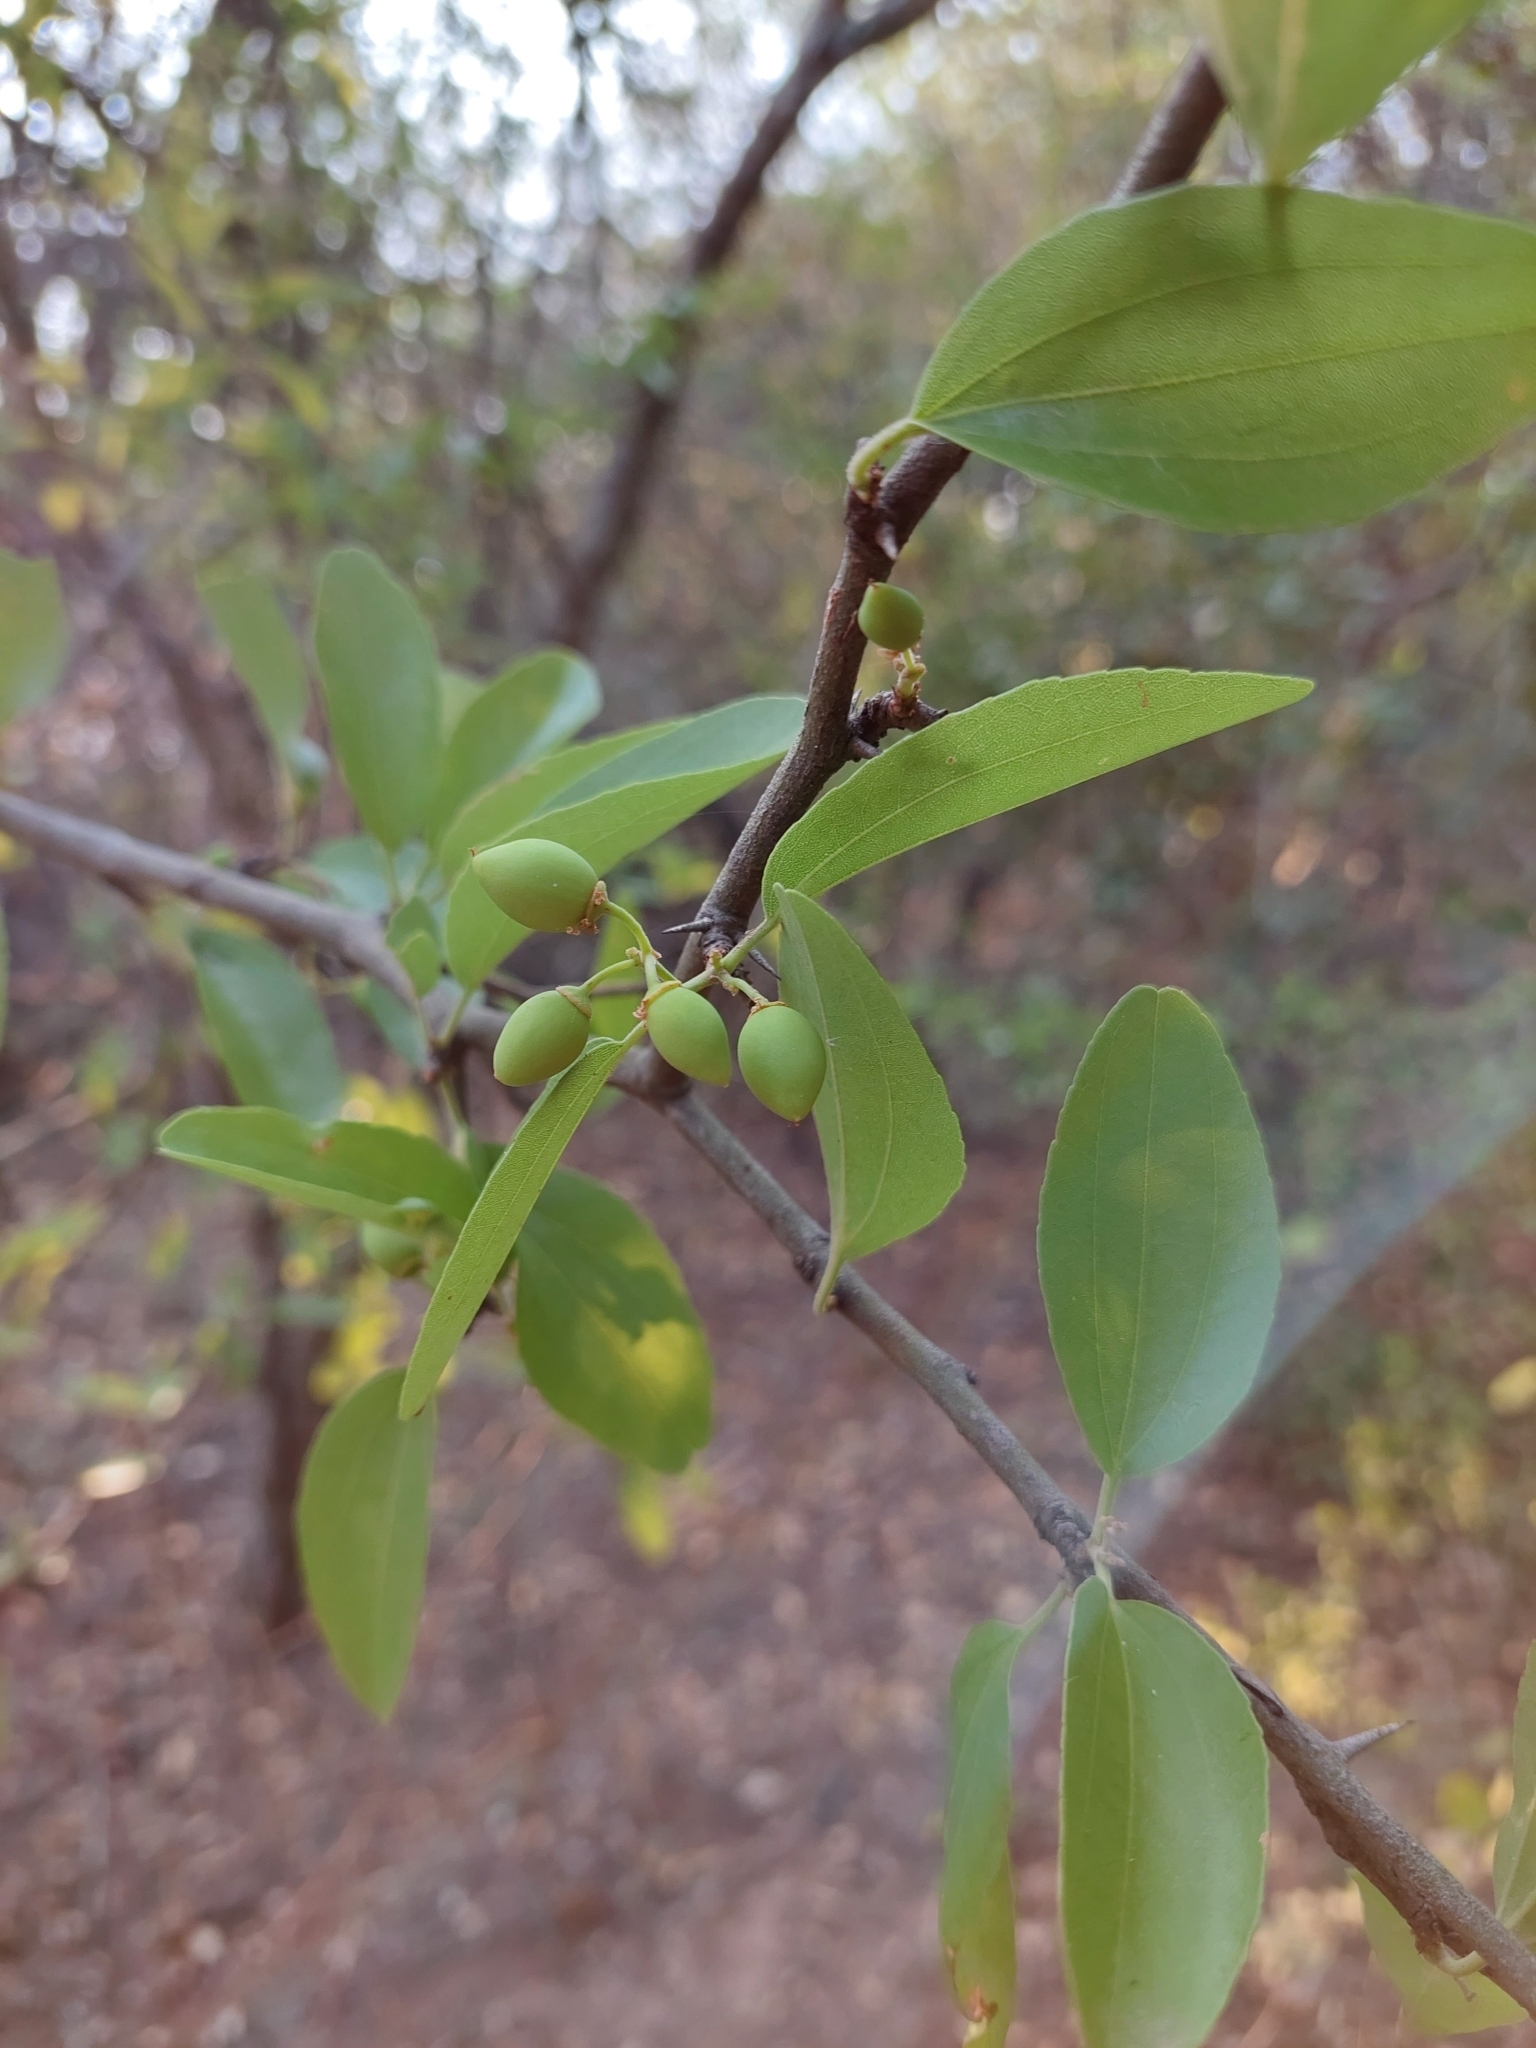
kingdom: Plantae
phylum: Tracheophyta
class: Magnoliopsida
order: Rosales
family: Rhamnaceae
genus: Sarcomphalus
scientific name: Sarcomphalus mistol
